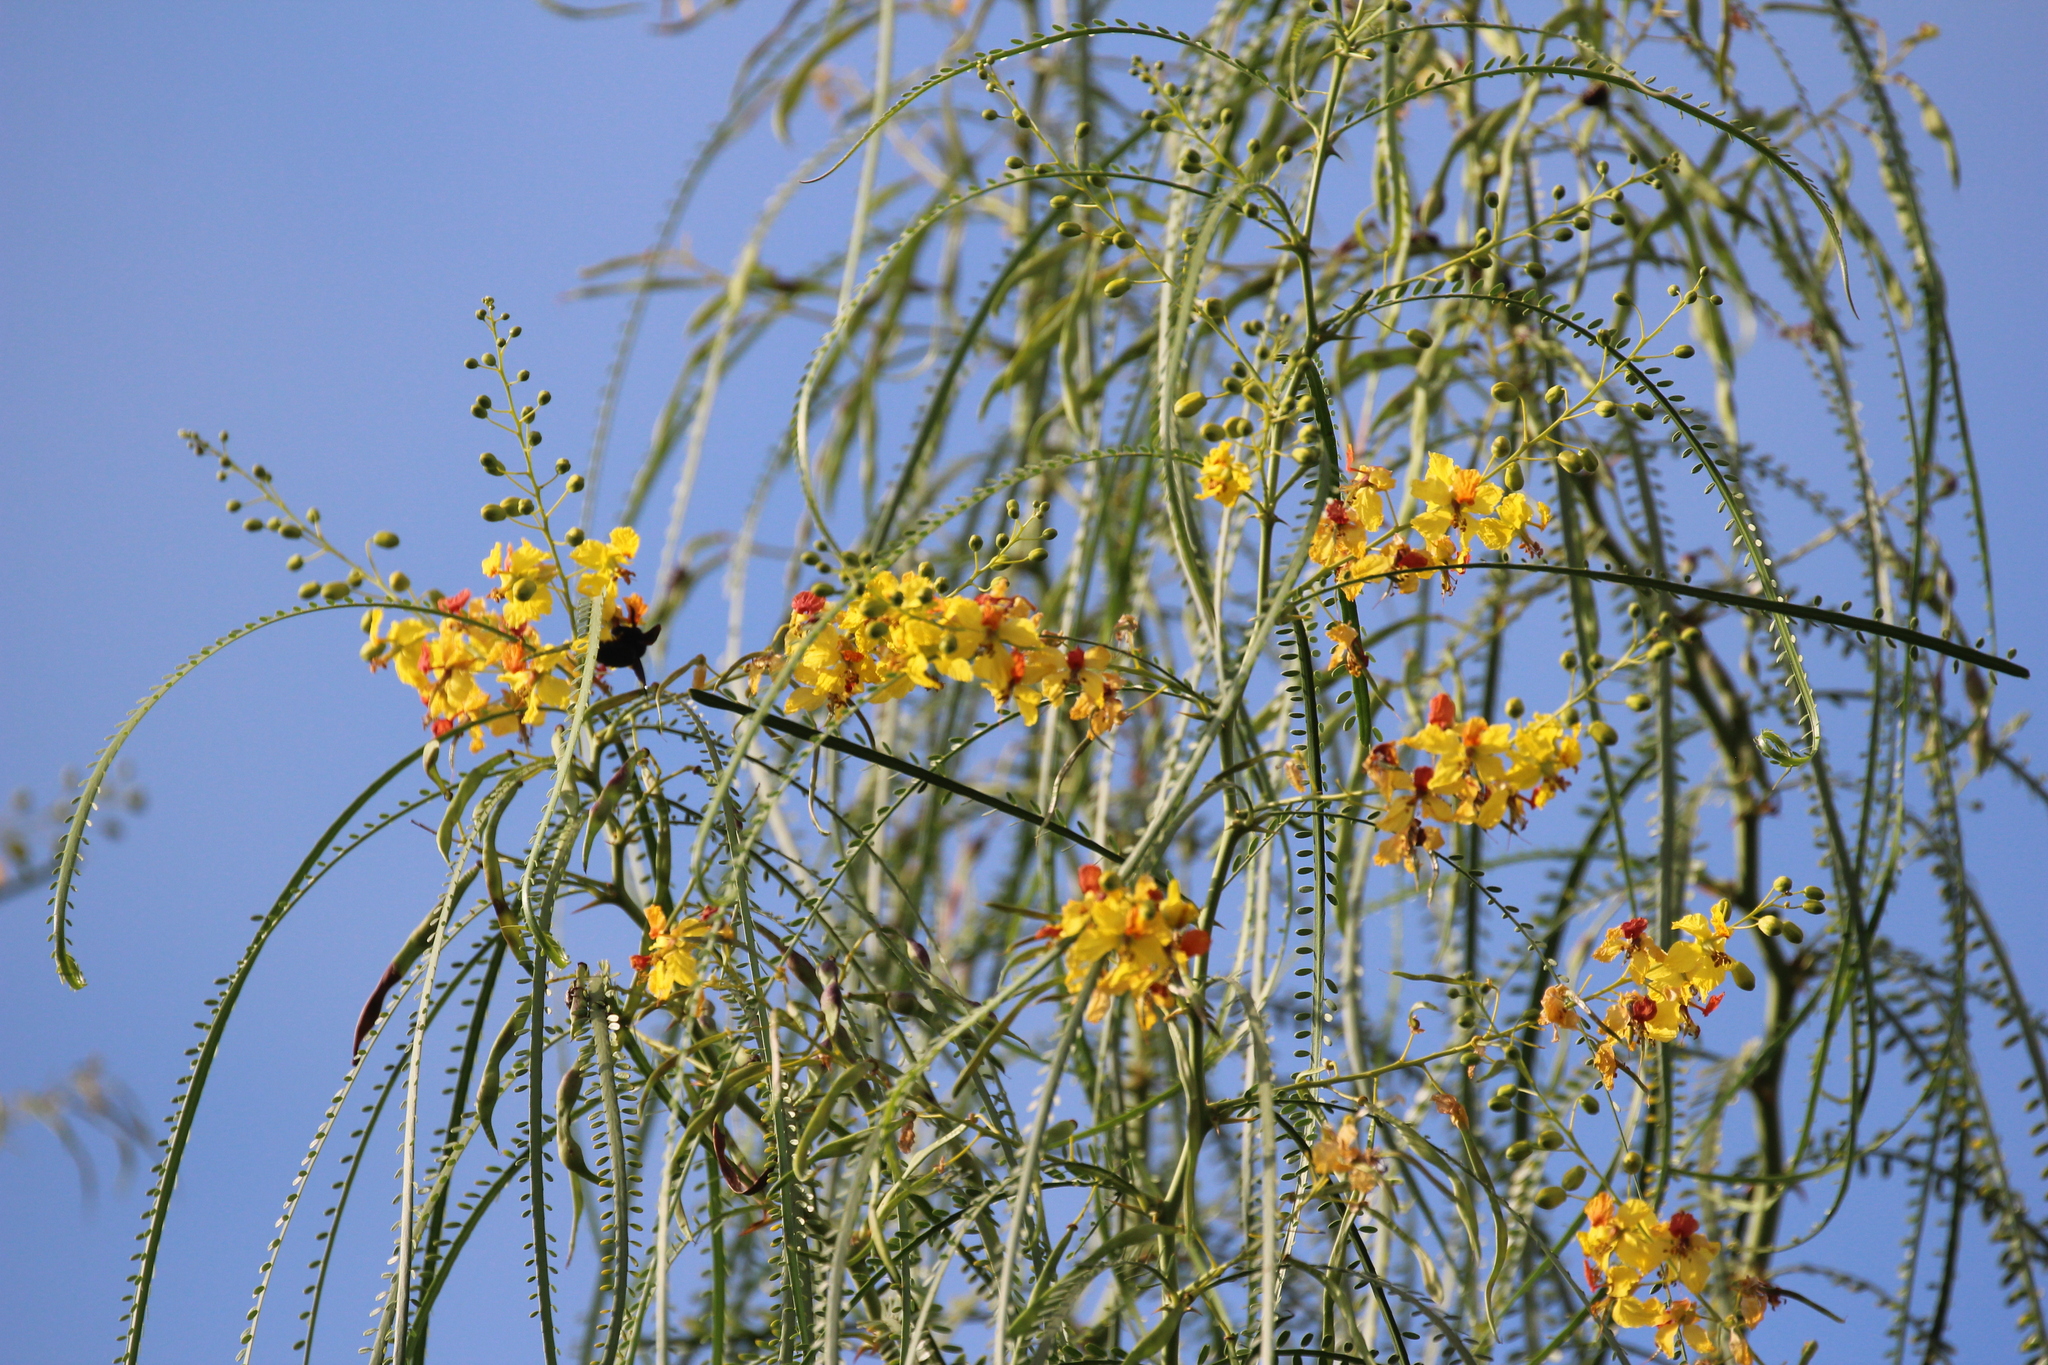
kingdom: Plantae
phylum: Tracheophyta
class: Magnoliopsida
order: Fabales
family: Fabaceae
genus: Parkinsonia
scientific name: Parkinsonia aculeata
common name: Jerusalem thorn
